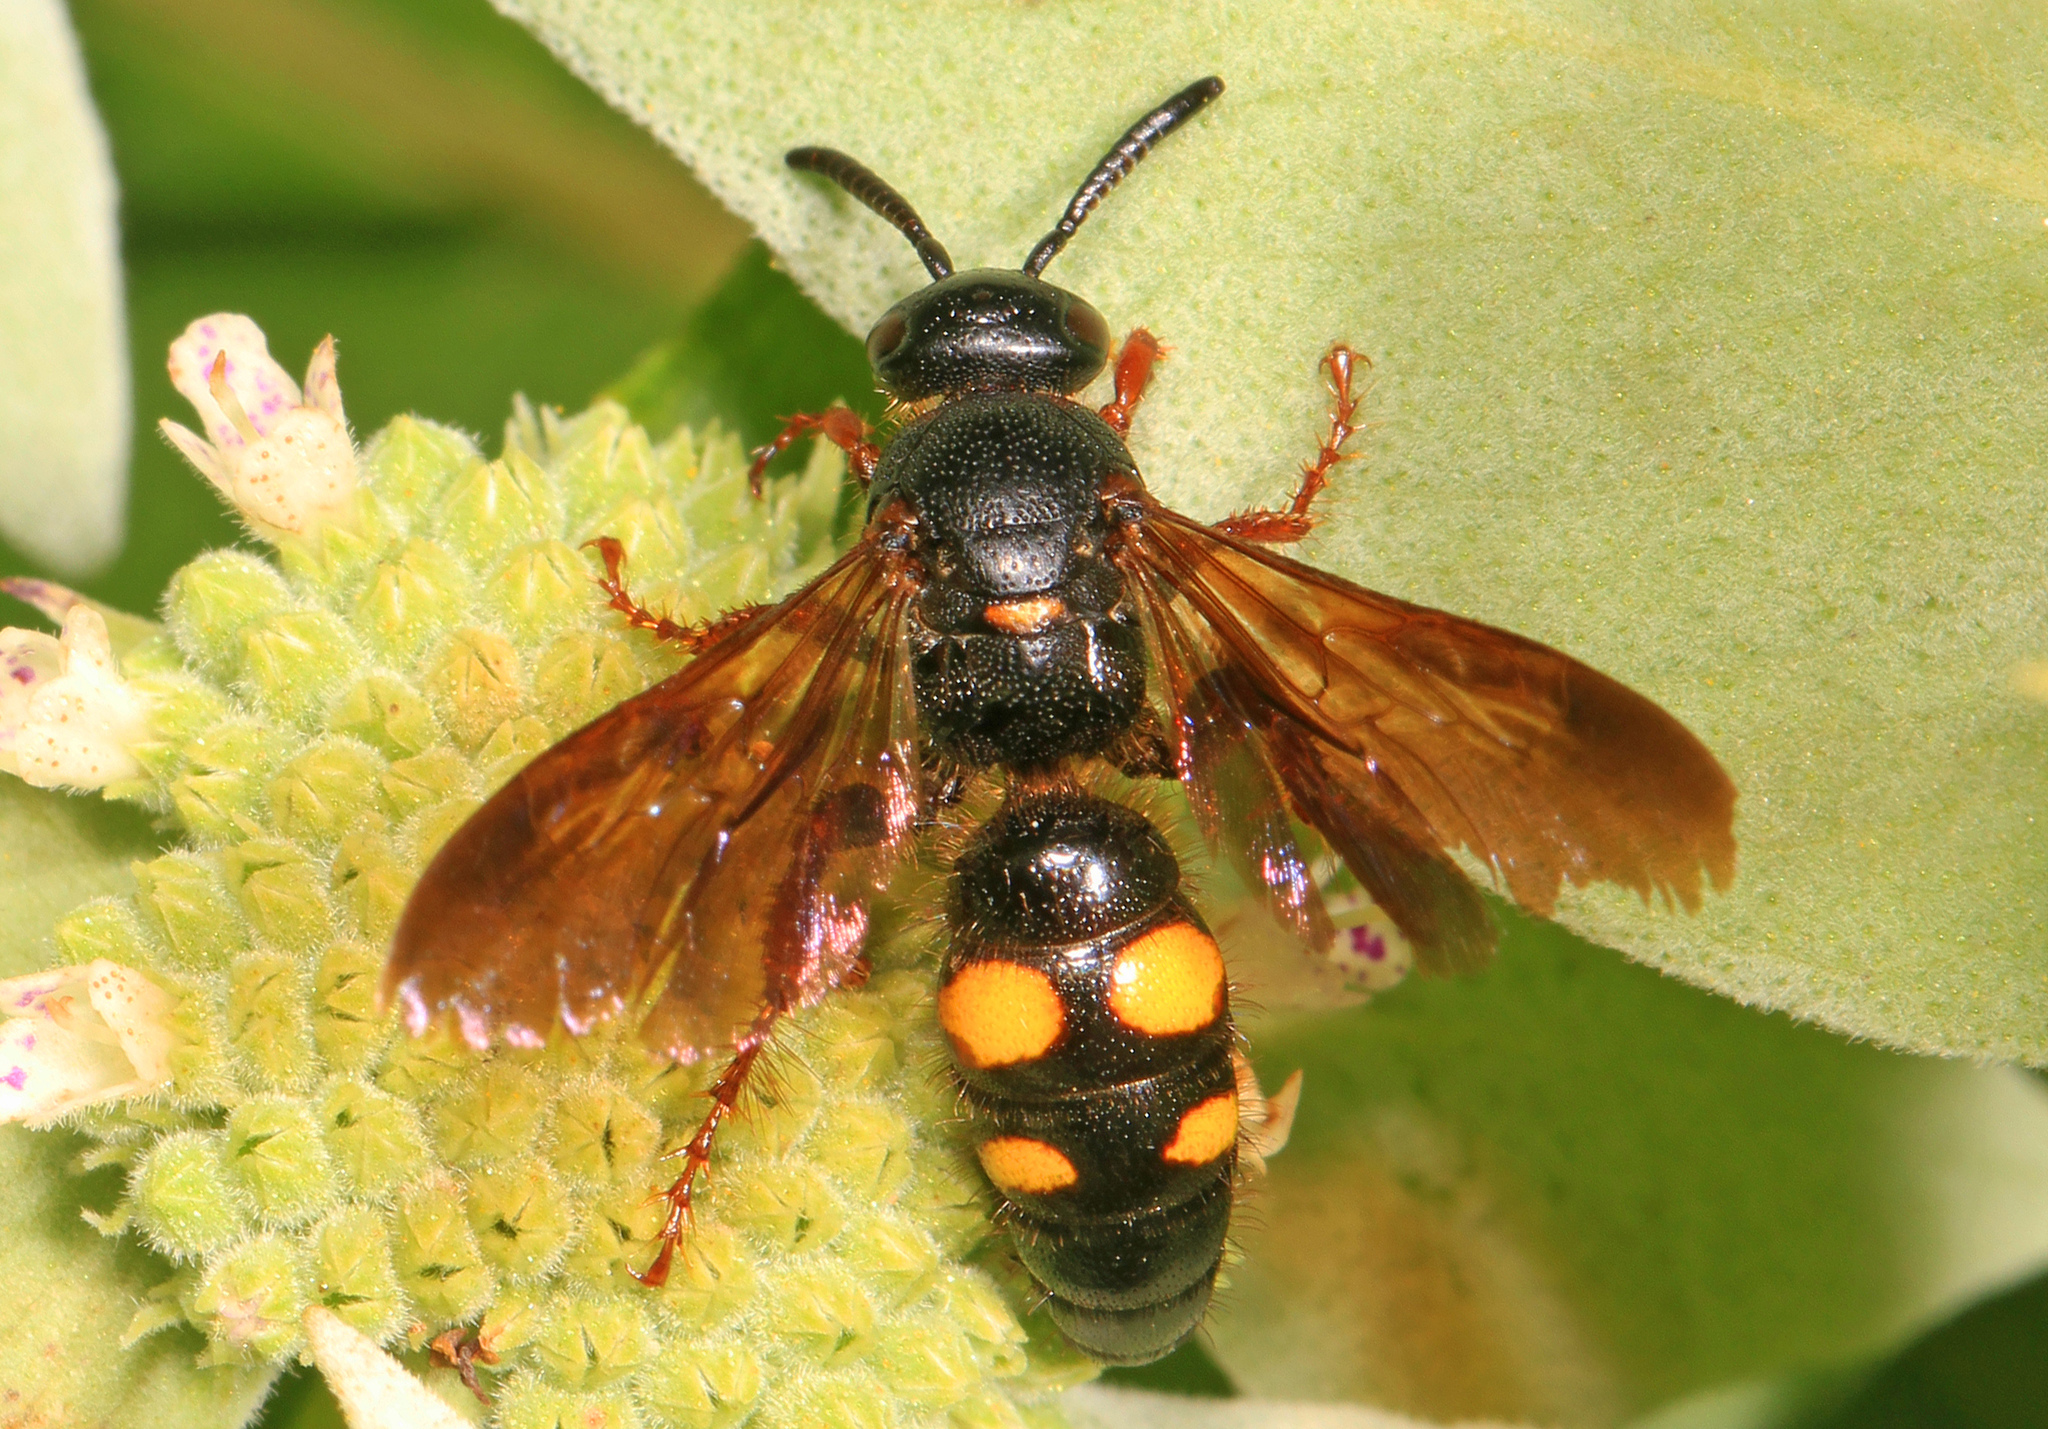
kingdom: Animalia
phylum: Arthropoda
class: Insecta
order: Hymenoptera
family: Scoliidae
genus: Scolia
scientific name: Scolia nobilitata
